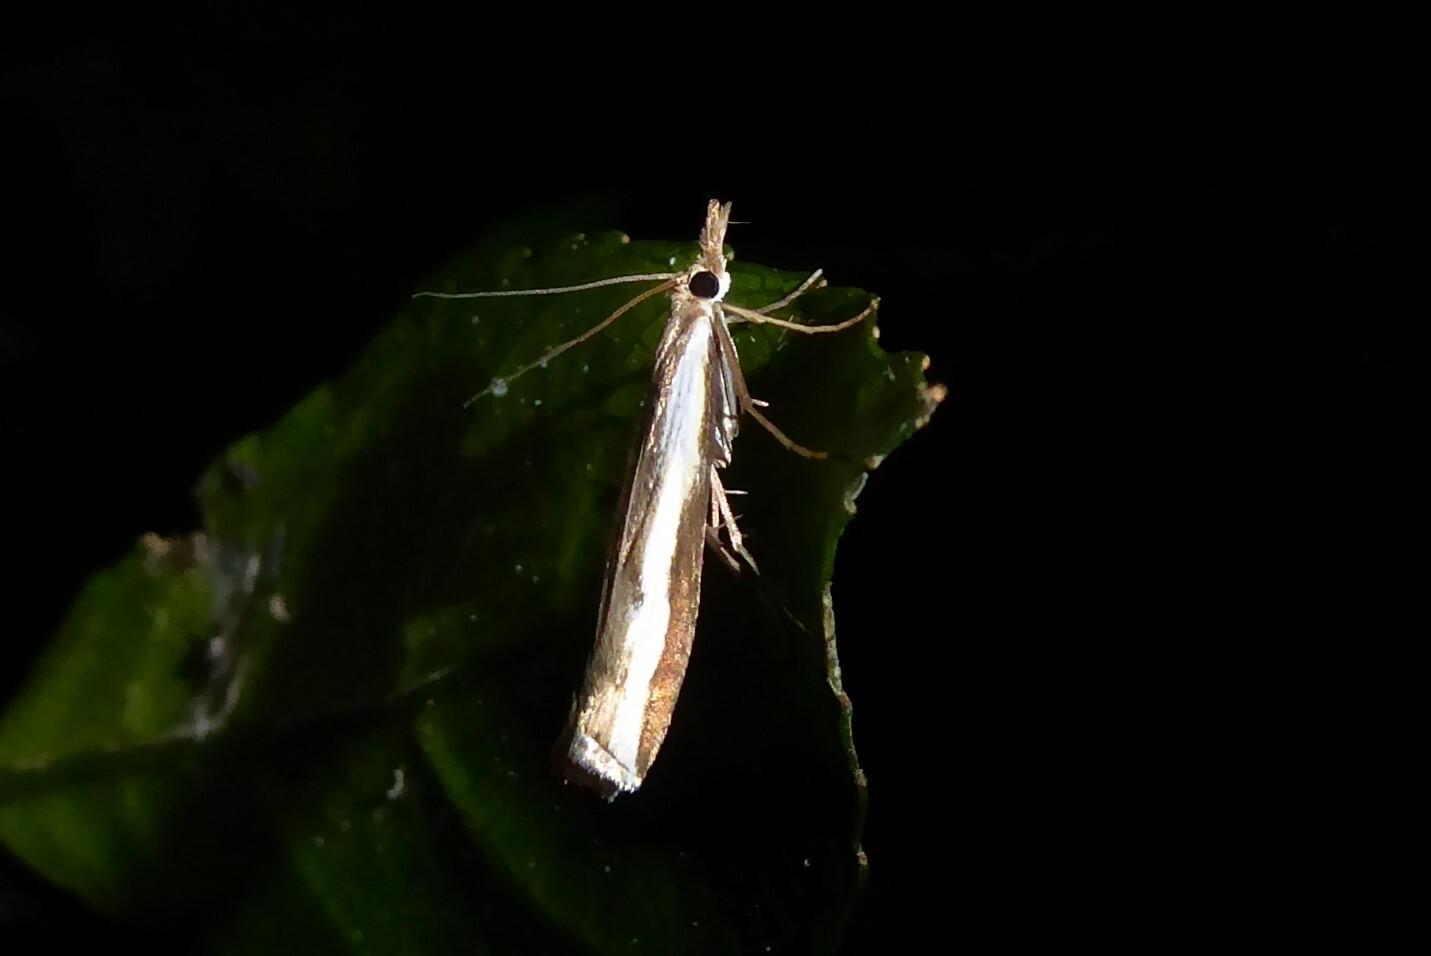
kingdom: Animalia
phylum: Arthropoda
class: Insecta
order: Lepidoptera
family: Crambidae
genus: Orocrambus
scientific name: Orocrambus flexuosellus
